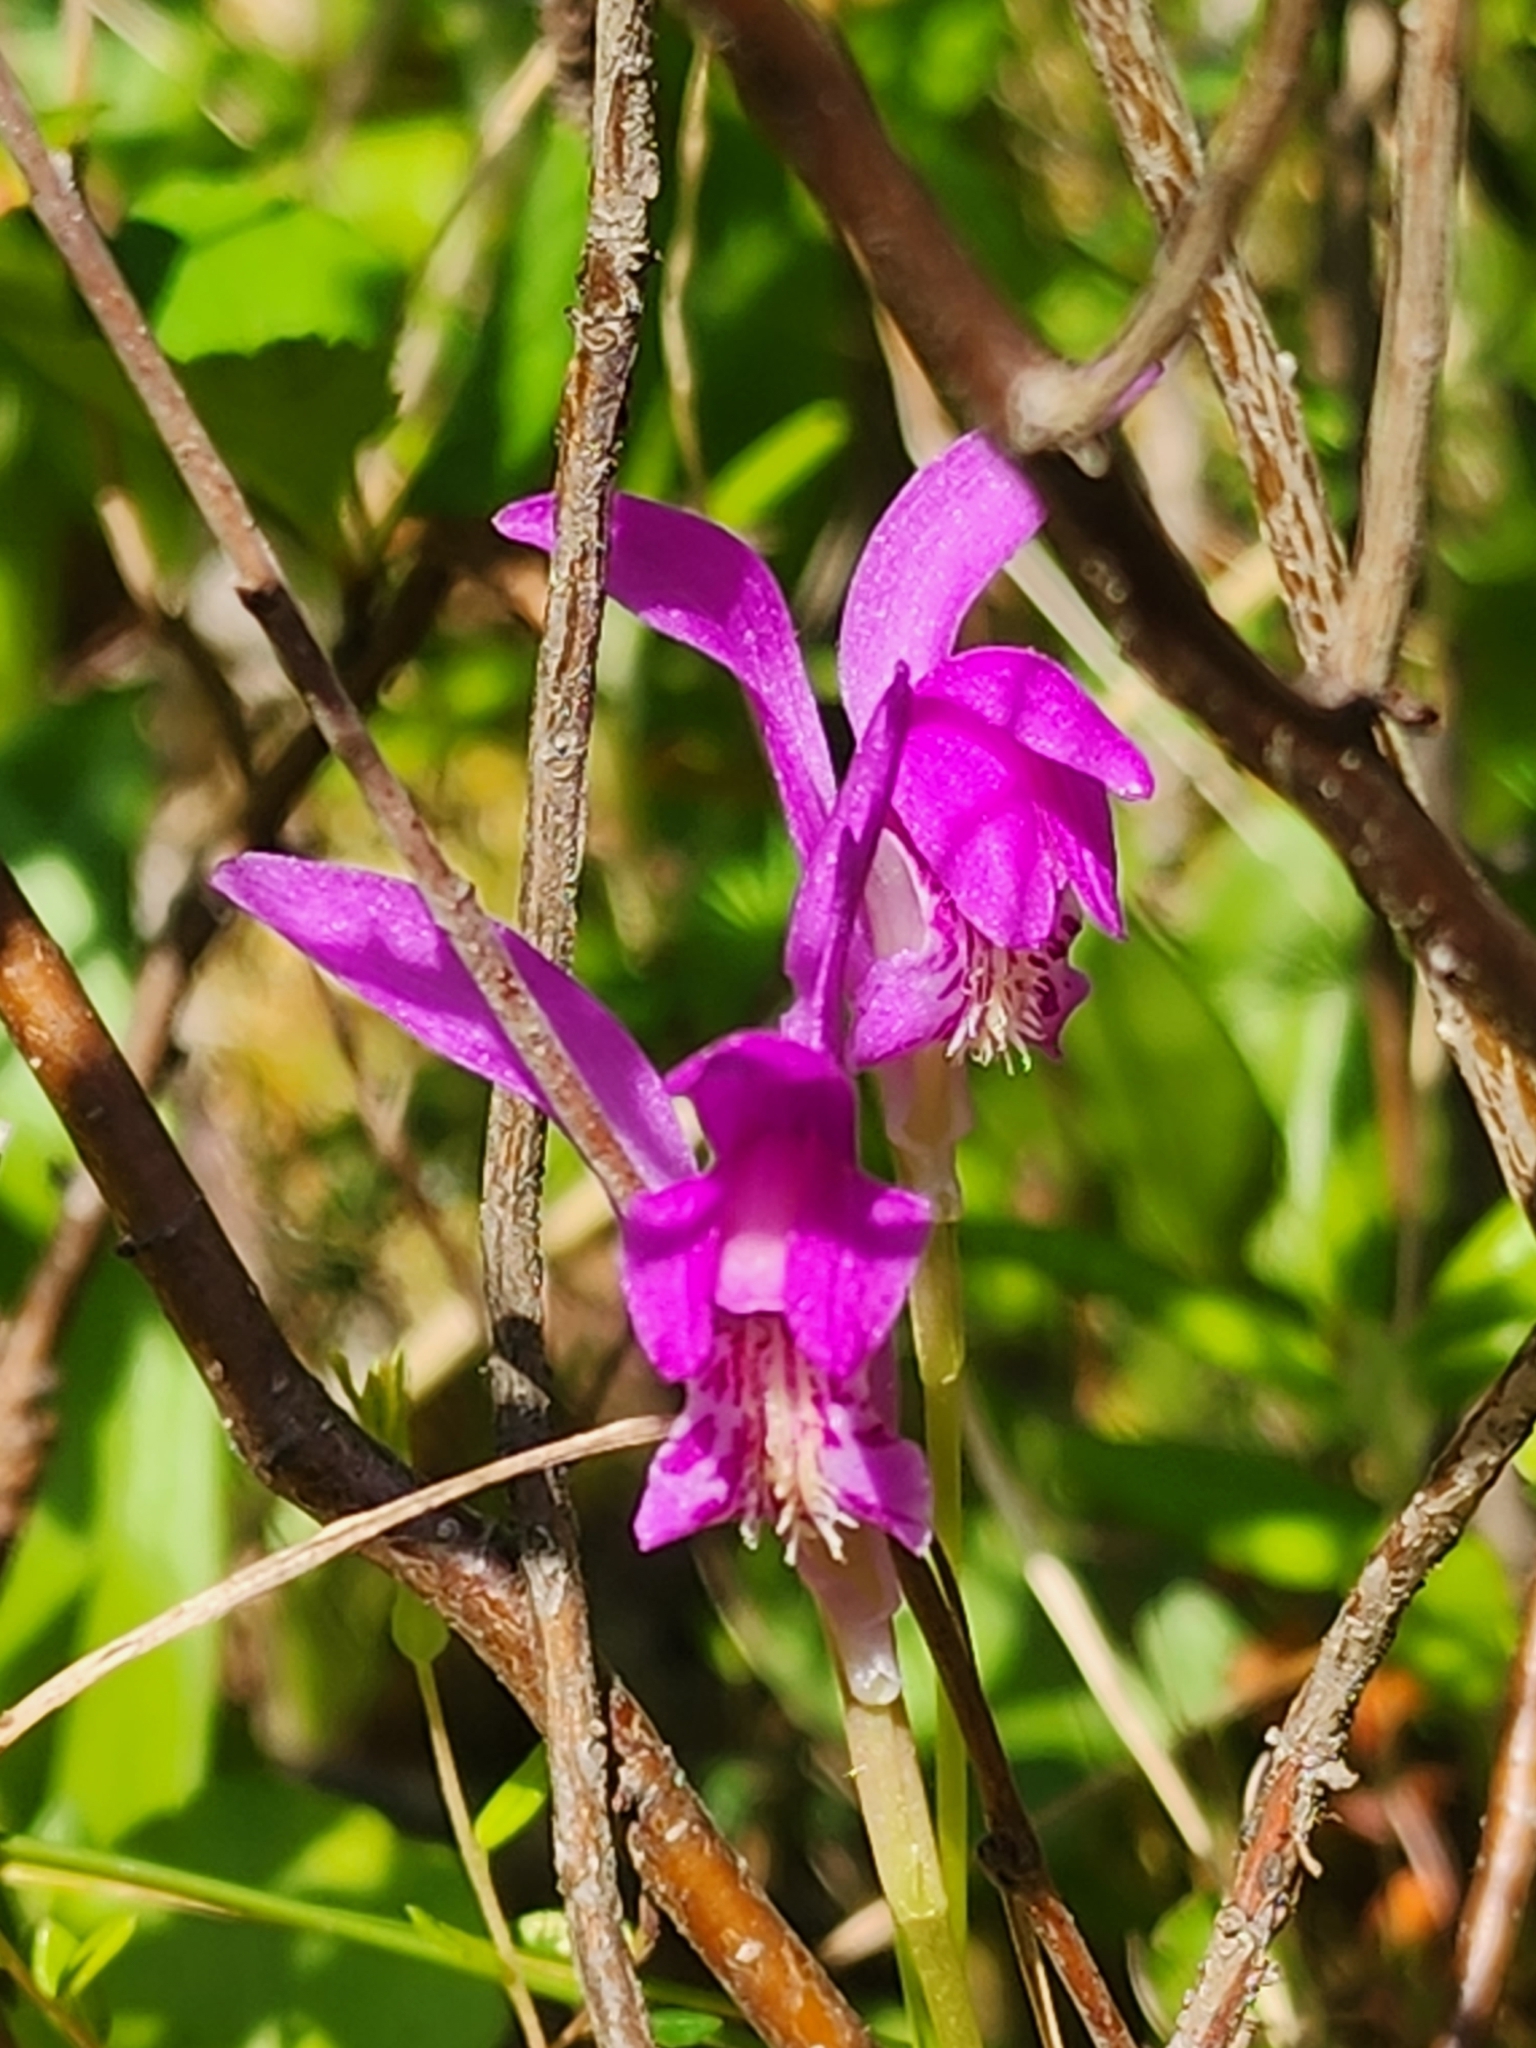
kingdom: Plantae
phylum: Tracheophyta
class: Liliopsida
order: Asparagales
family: Orchidaceae
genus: Arethusa
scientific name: Arethusa bulbosa
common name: Arethusa
